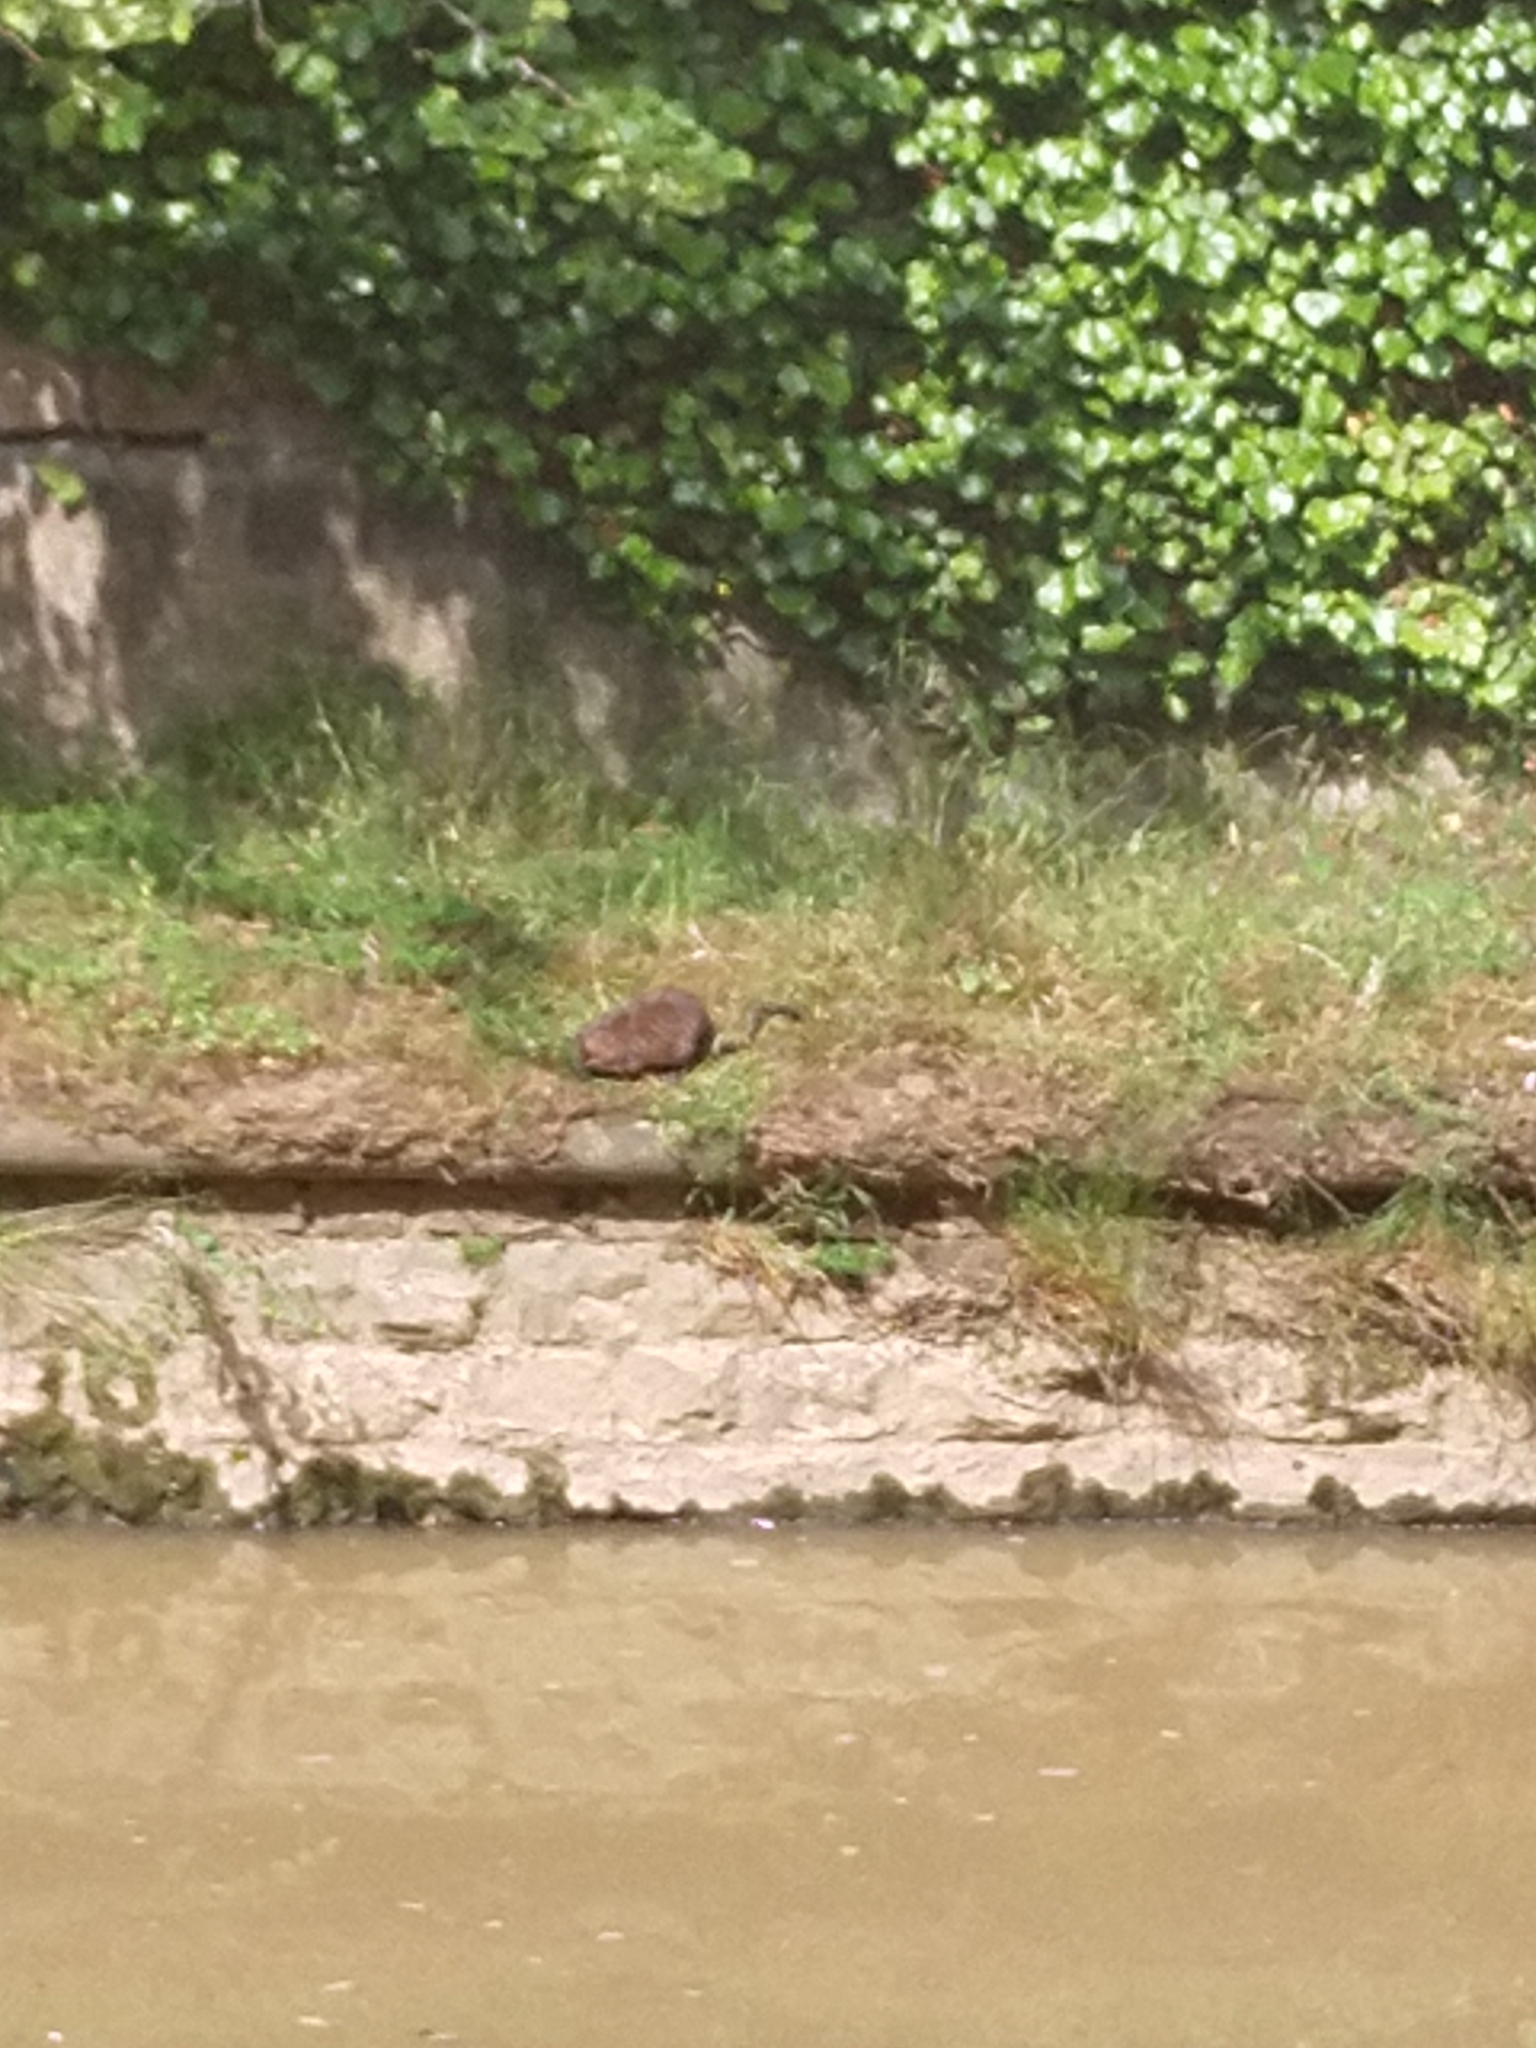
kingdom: Animalia
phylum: Chordata
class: Mammalia
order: Rodentia
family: Cricetidae
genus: Ondatra
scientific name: Ondatra zibethicus
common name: Muskrat
